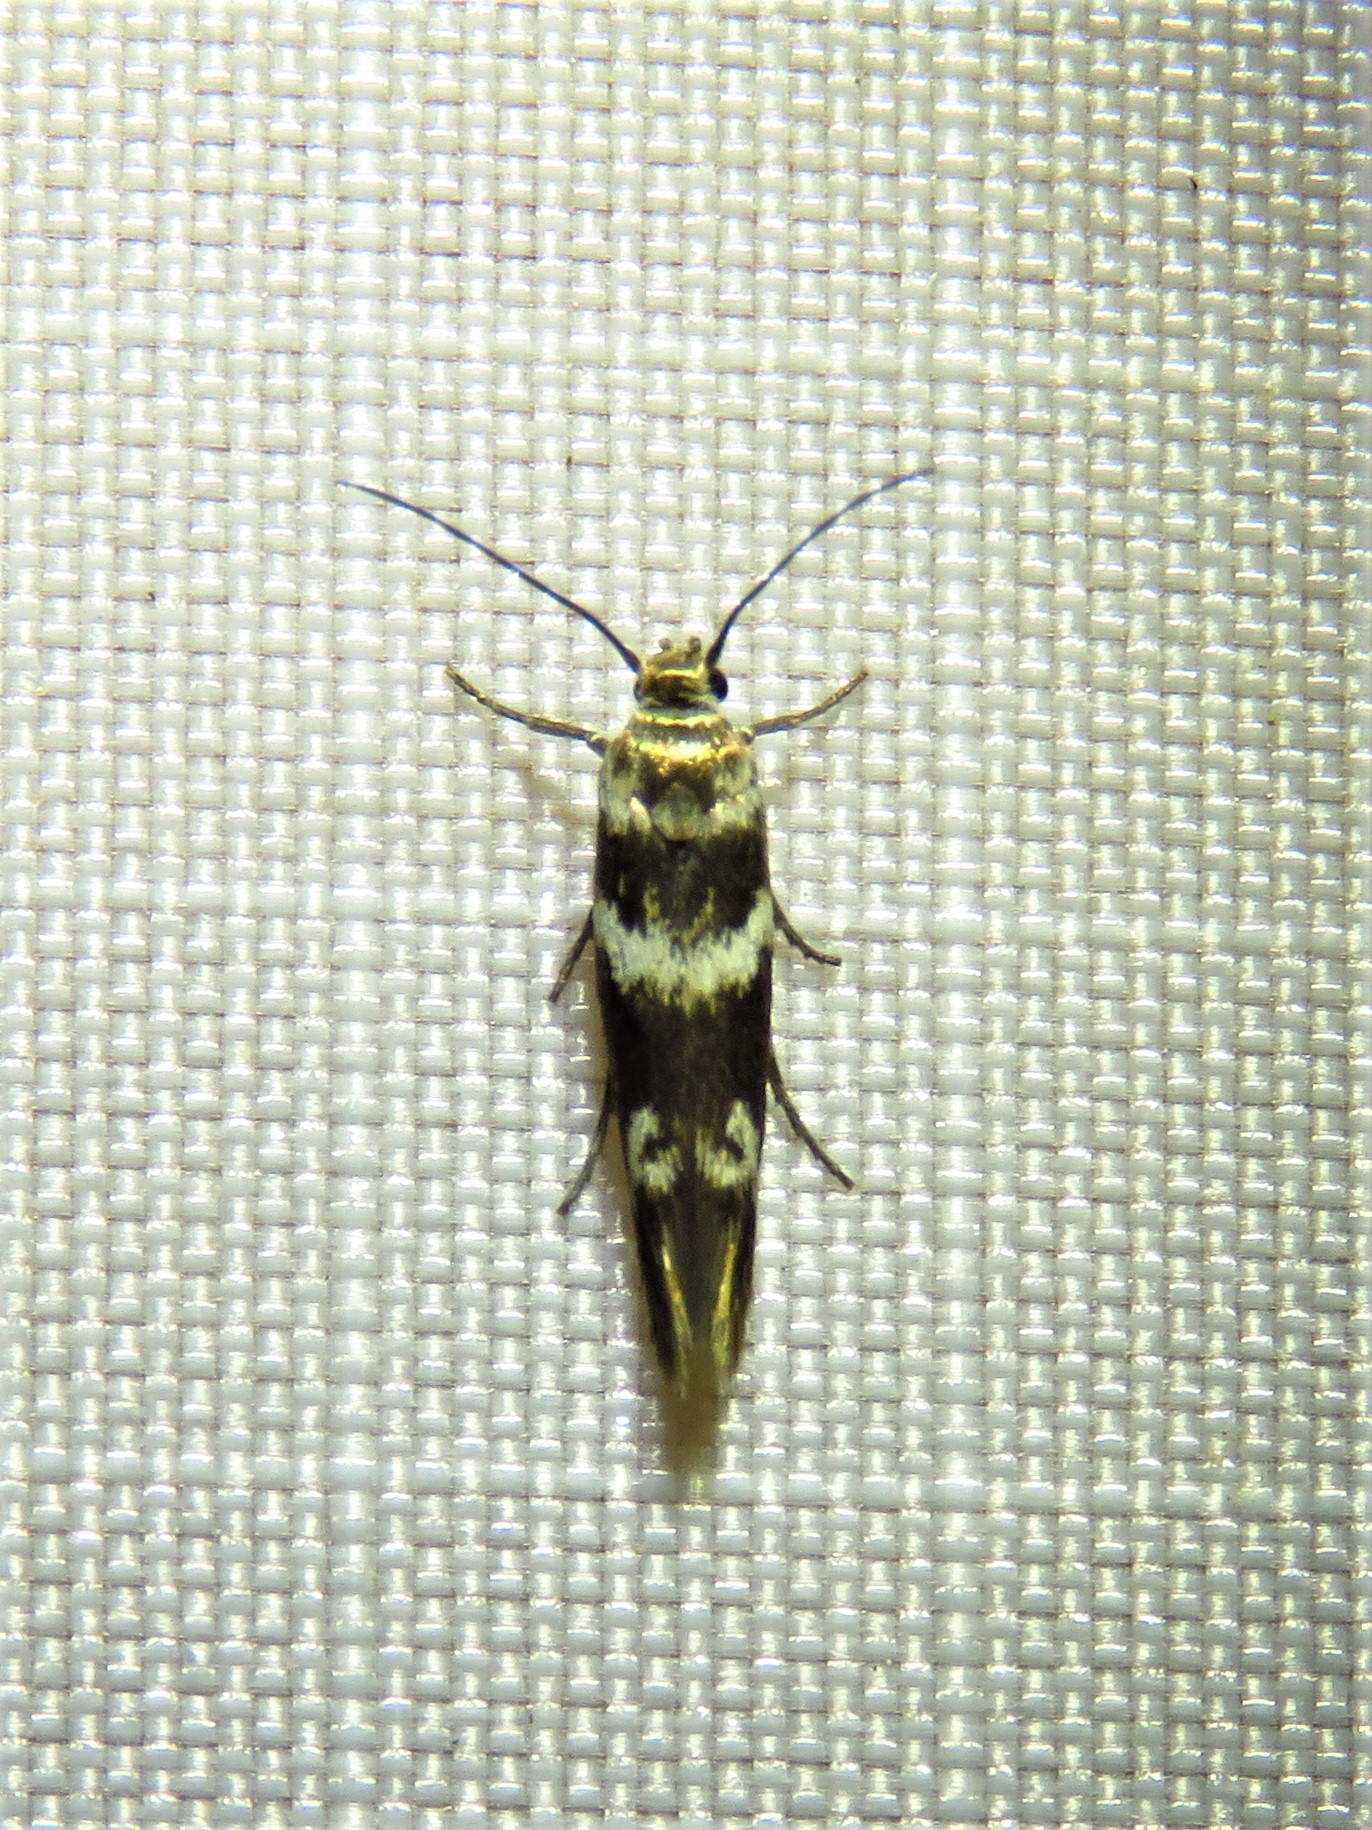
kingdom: Animalia
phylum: Arthropoda
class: Insecta
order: Lepidoptera
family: Scythrididae
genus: Scythris
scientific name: Scythris trivinctella
